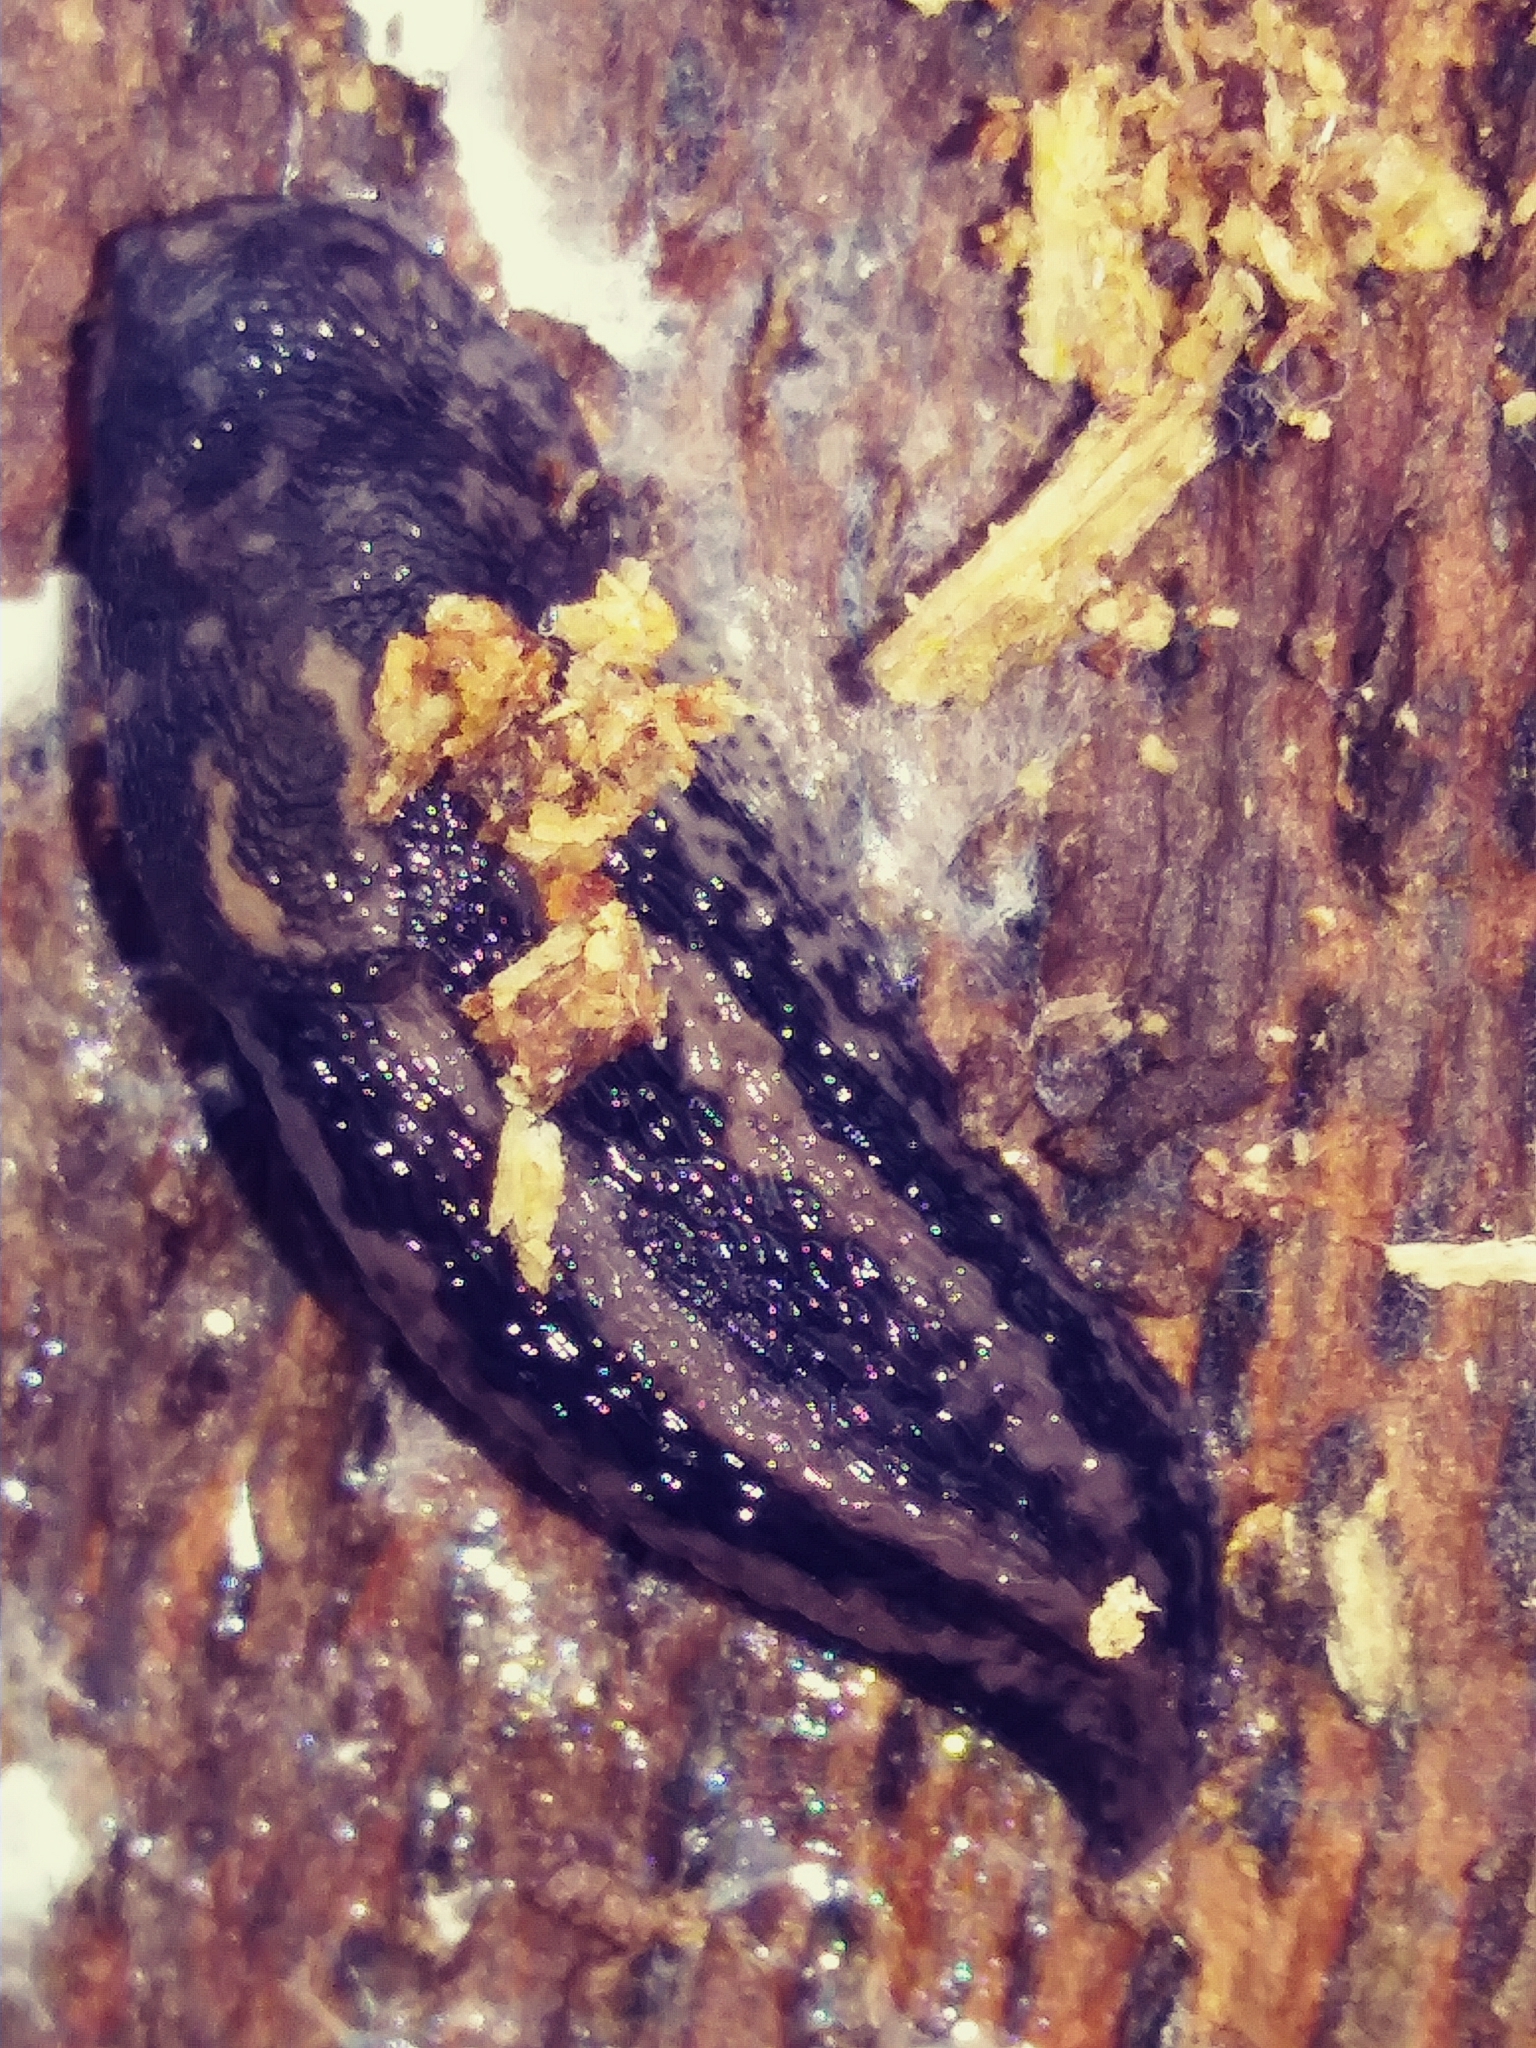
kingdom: Animalia
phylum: Mollusca
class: Gastropoda
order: Stylommatophora
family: Philomycidae
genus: Philomycus
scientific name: Philomycus carolinianus
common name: Carolina mantleslug
